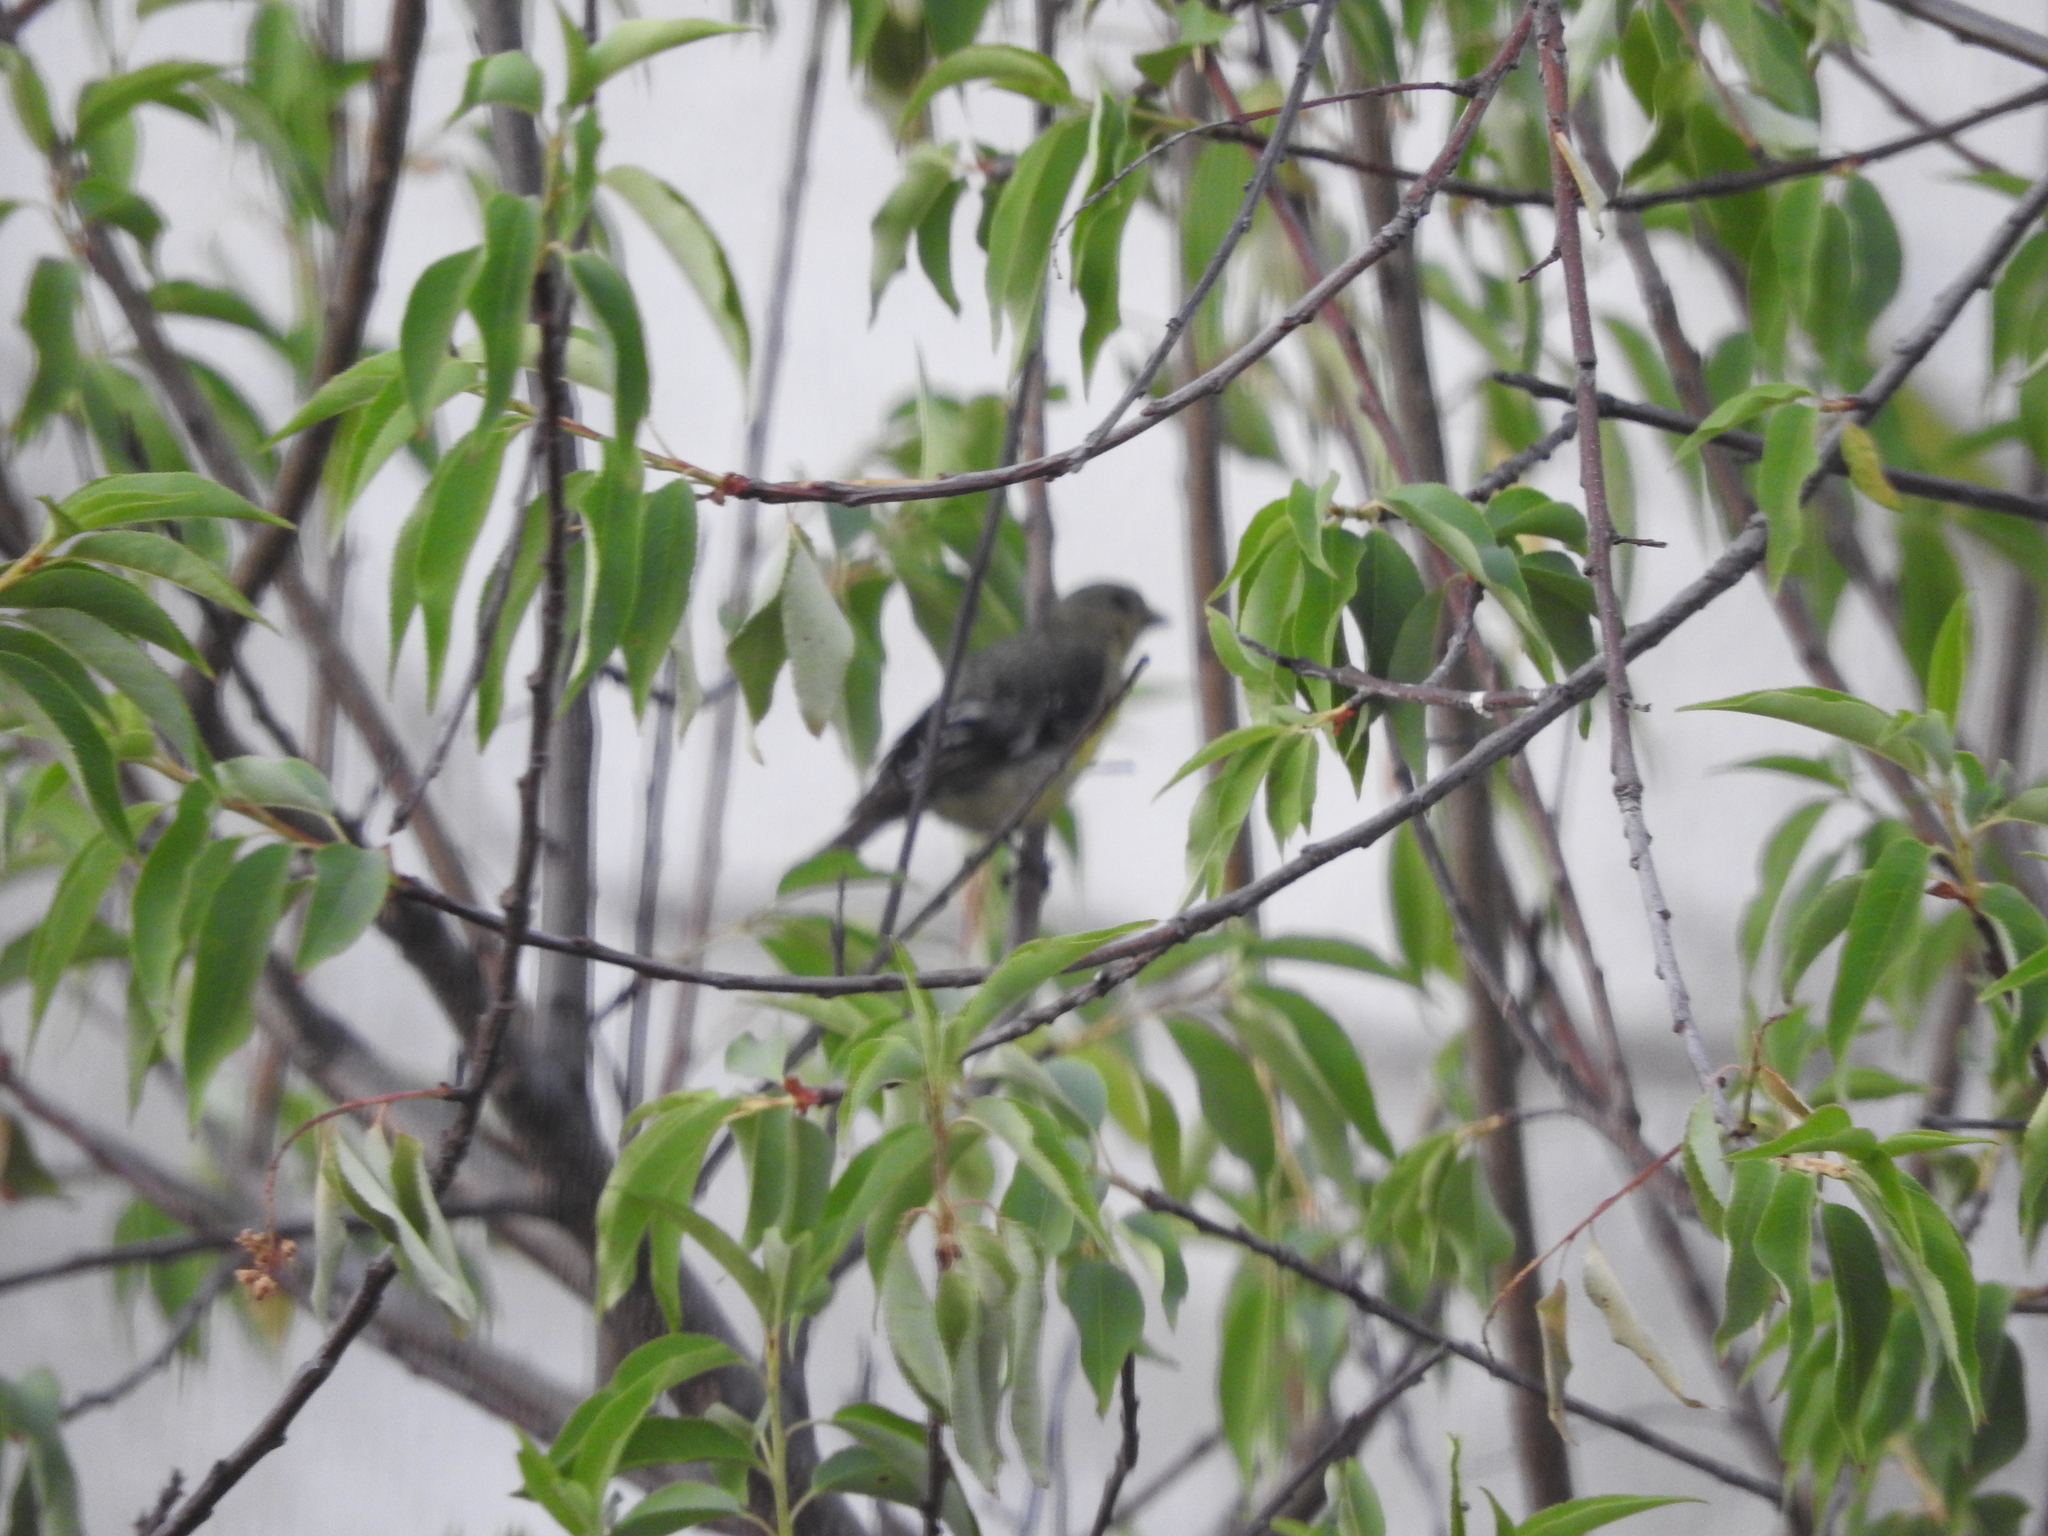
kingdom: Animalia
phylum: Chordata
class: Aves
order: Passeriformes
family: Fringillidae
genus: Spinus
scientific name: Spinus psaltria
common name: Lesser goldfinch
